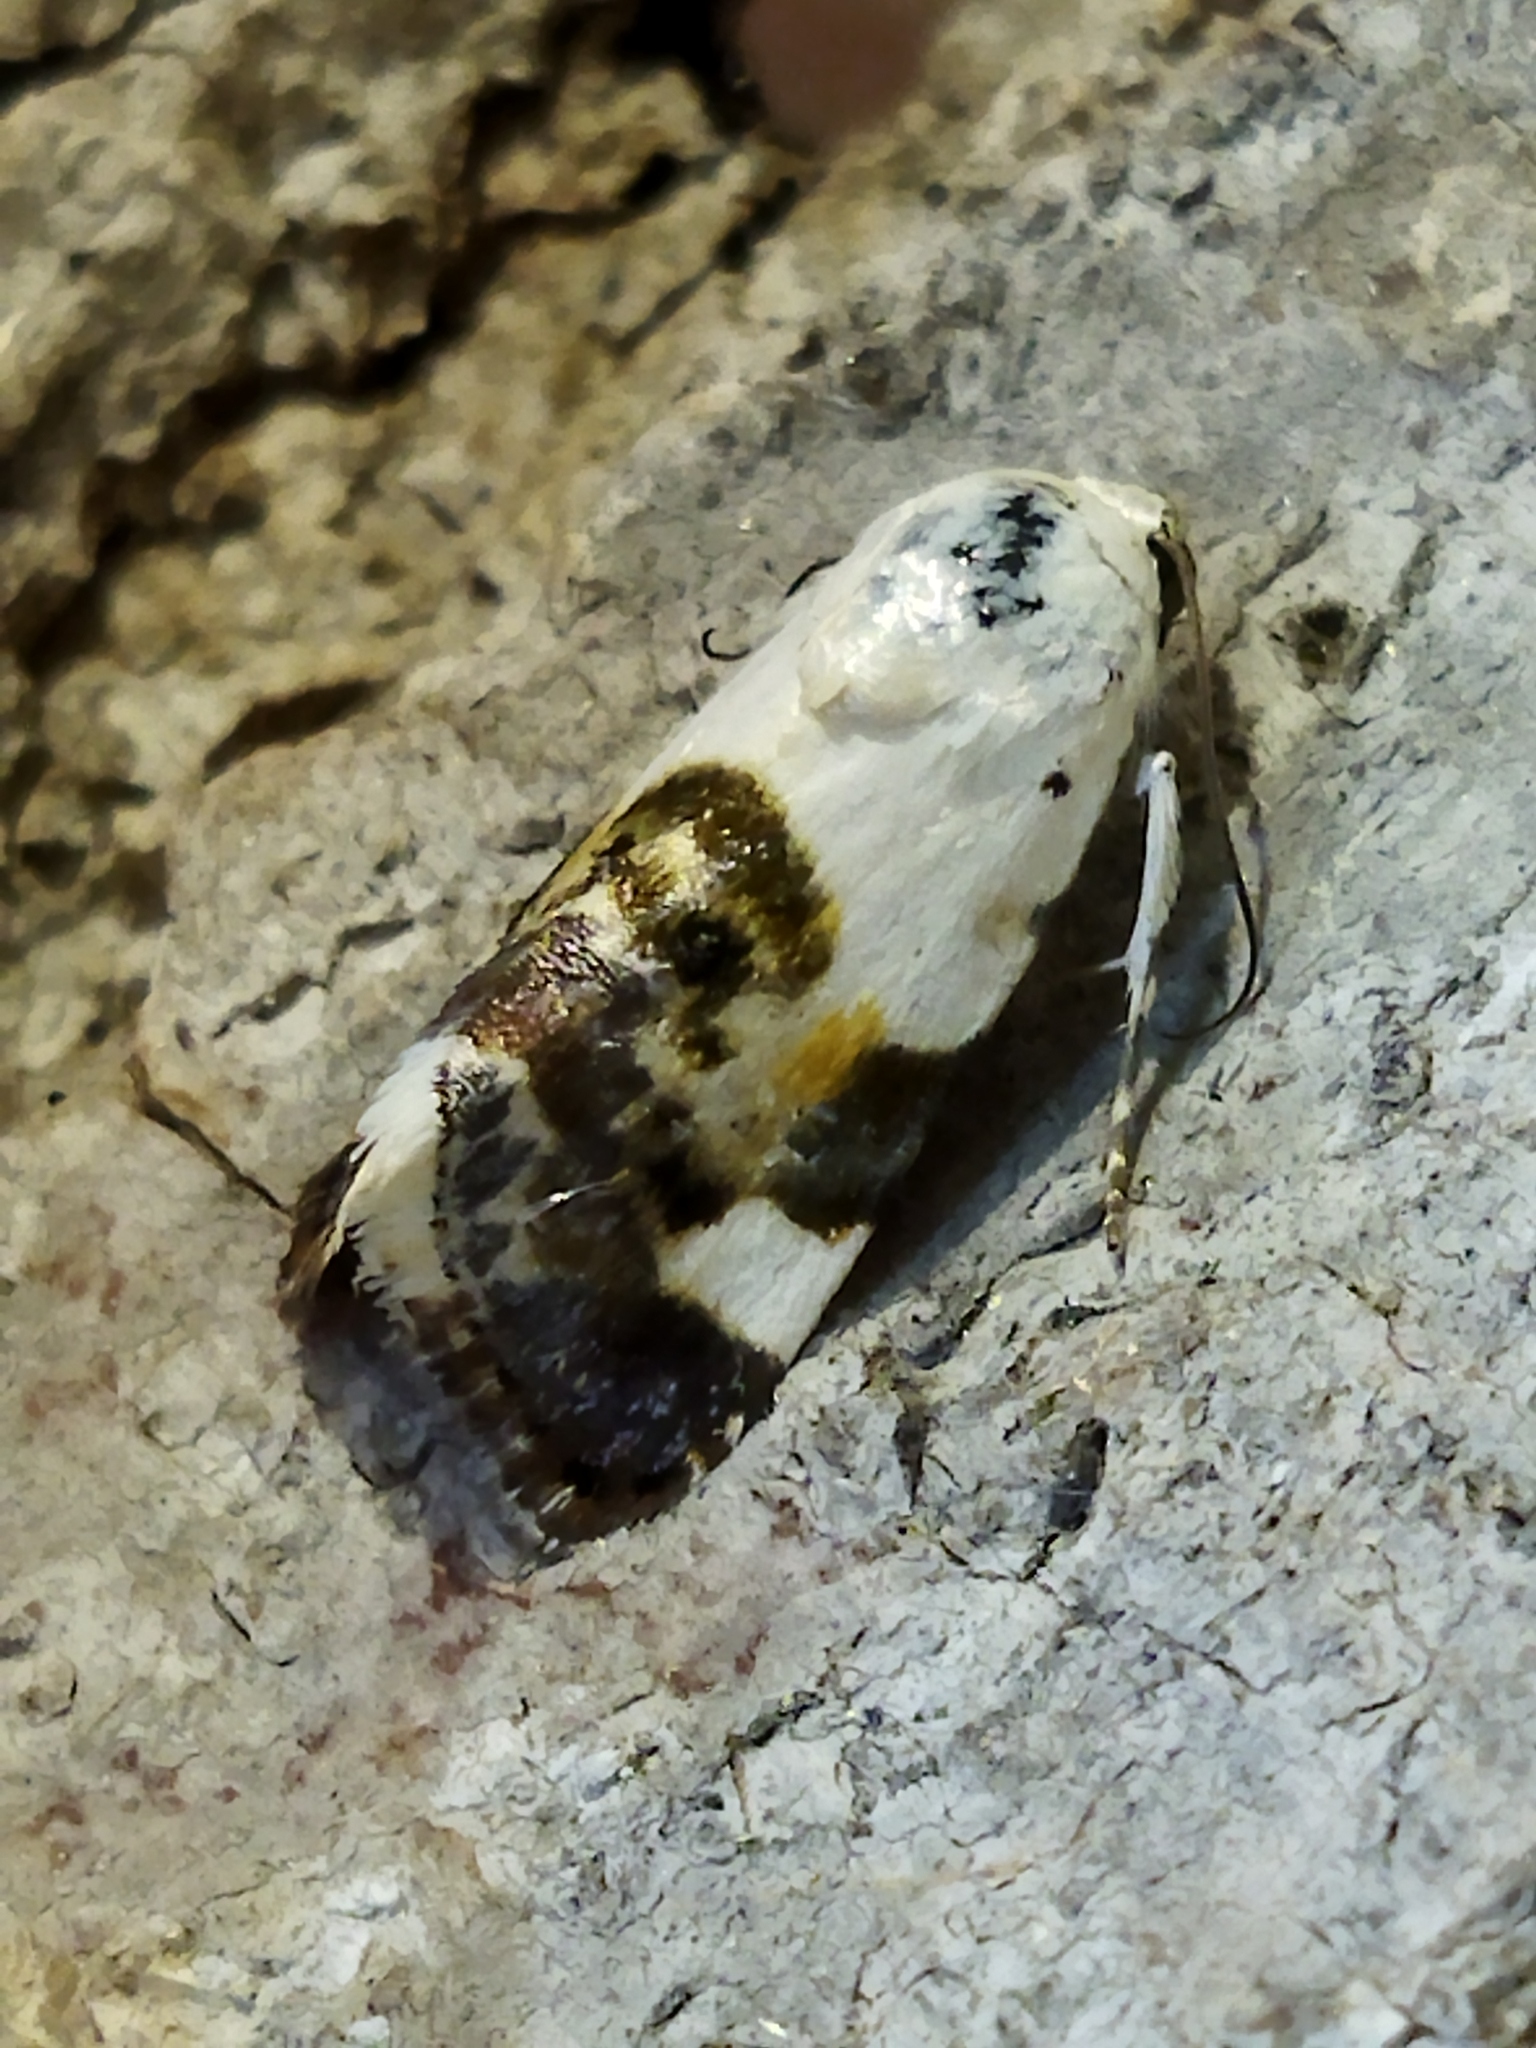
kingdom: Animalia
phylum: Arthropoda
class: Insecta
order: Lepidoptera
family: Noctuidae
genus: Acontia
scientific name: Acontia lucida
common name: Pale shoulder
